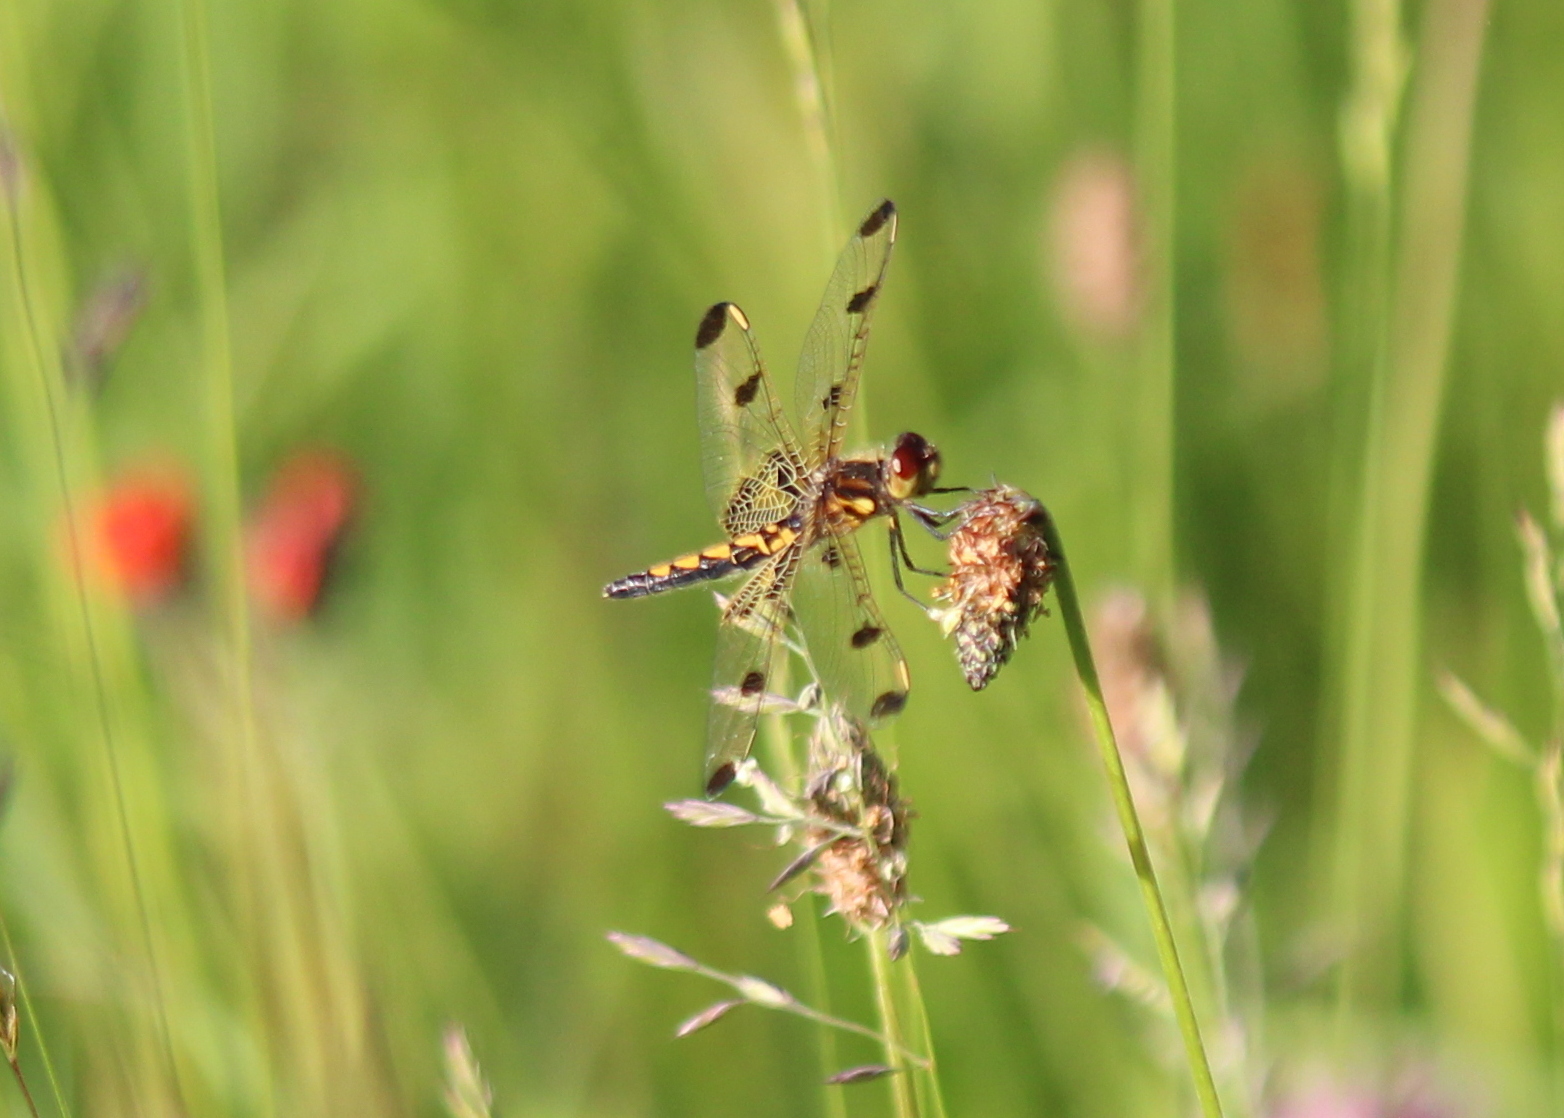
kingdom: Animalia
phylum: Arthropoda
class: Insecta
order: Odonata
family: Libellulidae
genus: Celithemis
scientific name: Celithemis elisa
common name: Calico pennant
